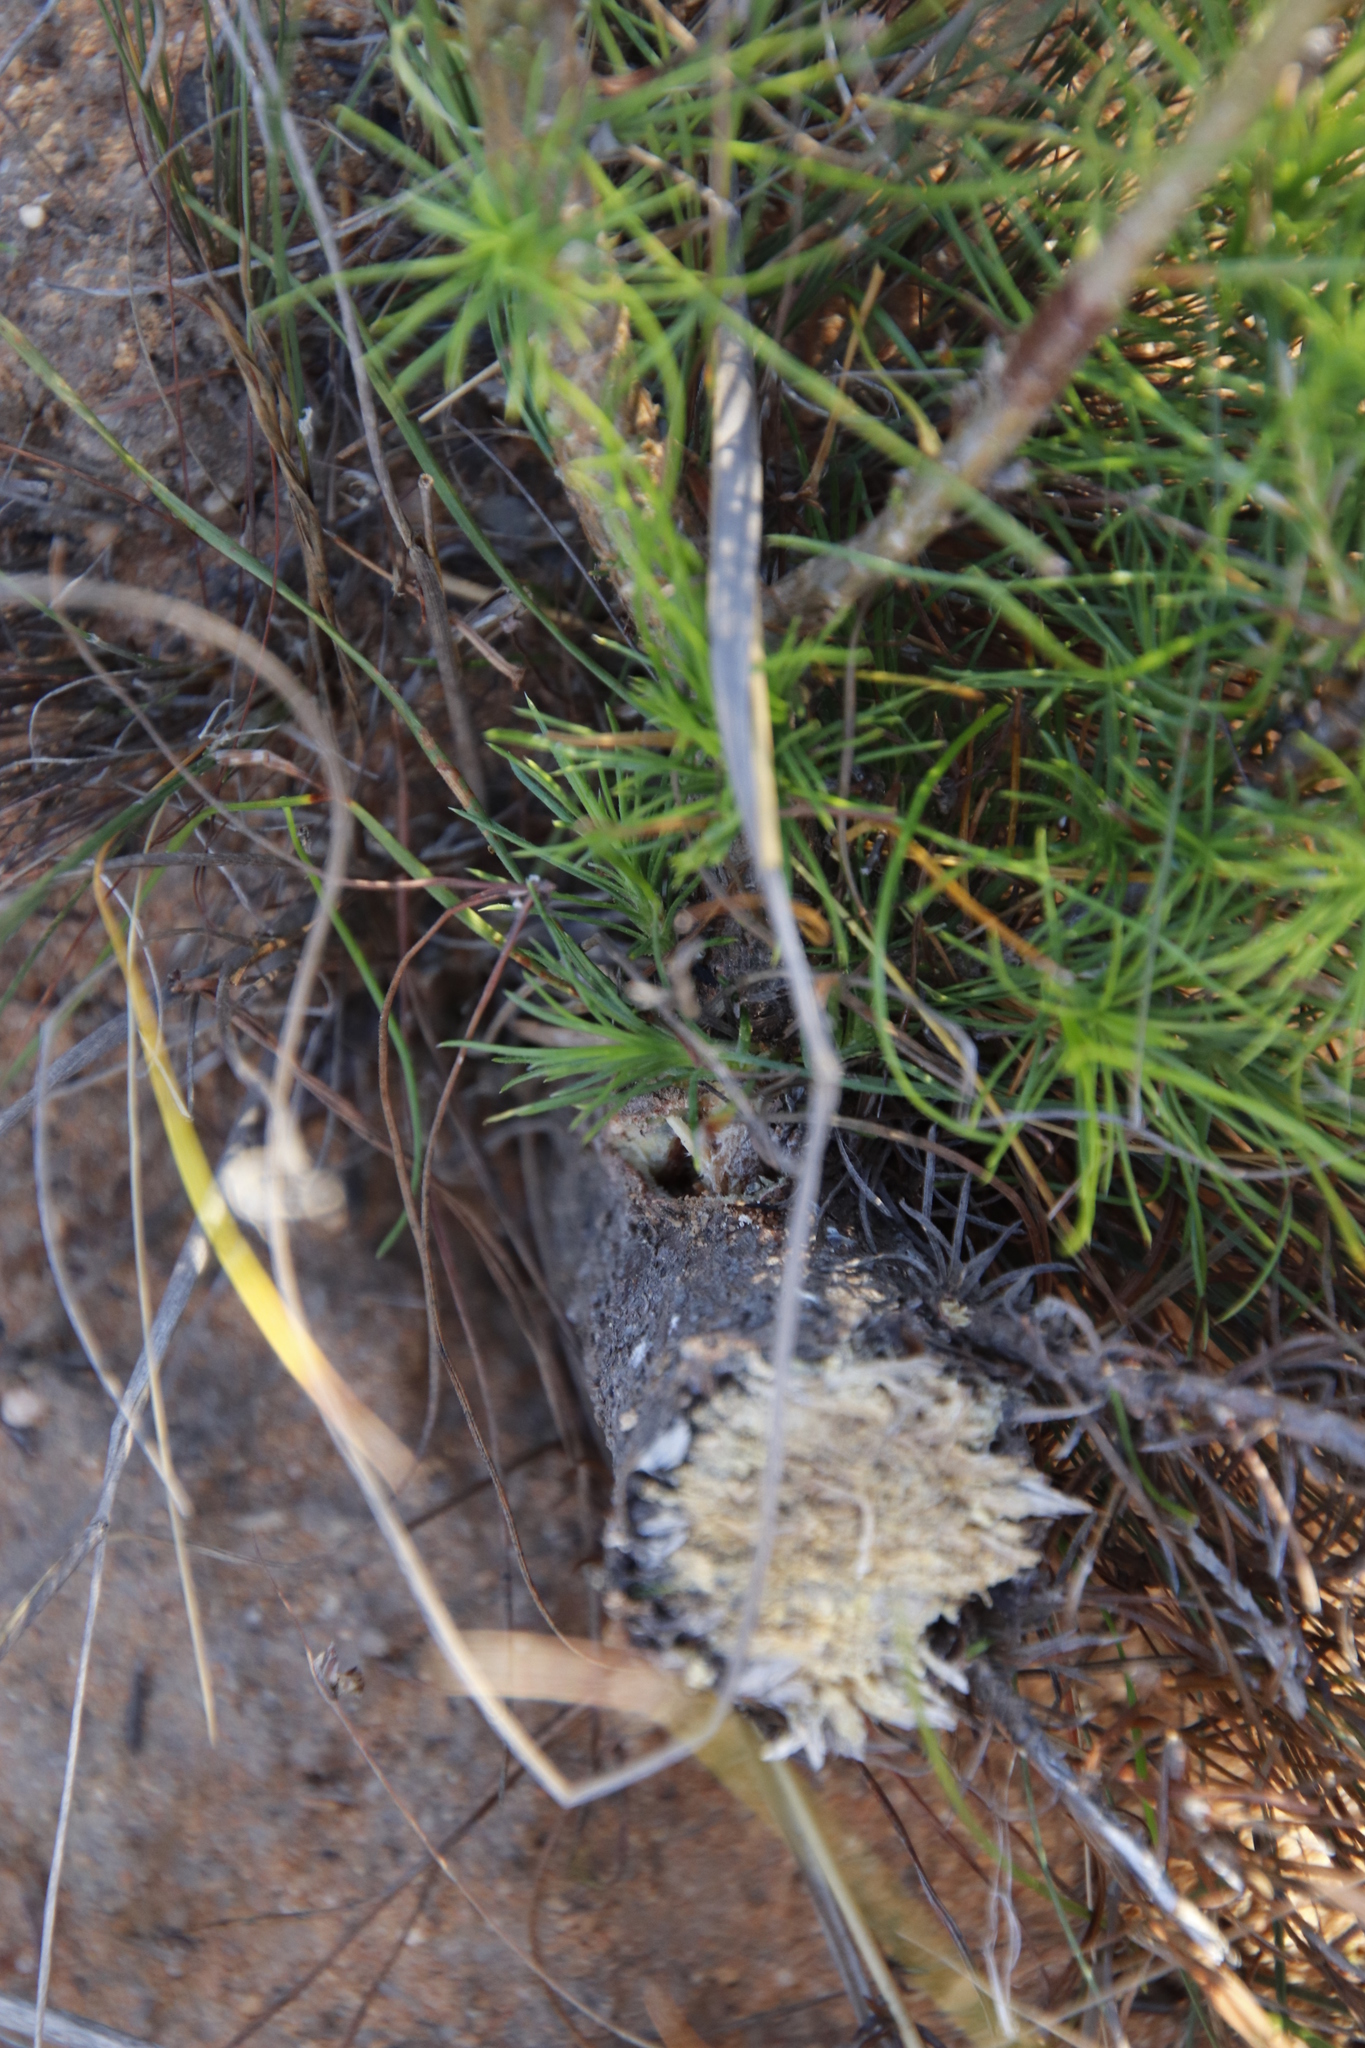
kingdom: Plantae
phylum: Tracheophyta
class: Pinopsida
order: Pinales
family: Pinaceae
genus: Pinus
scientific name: Pinus radiata
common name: Monterey pine
